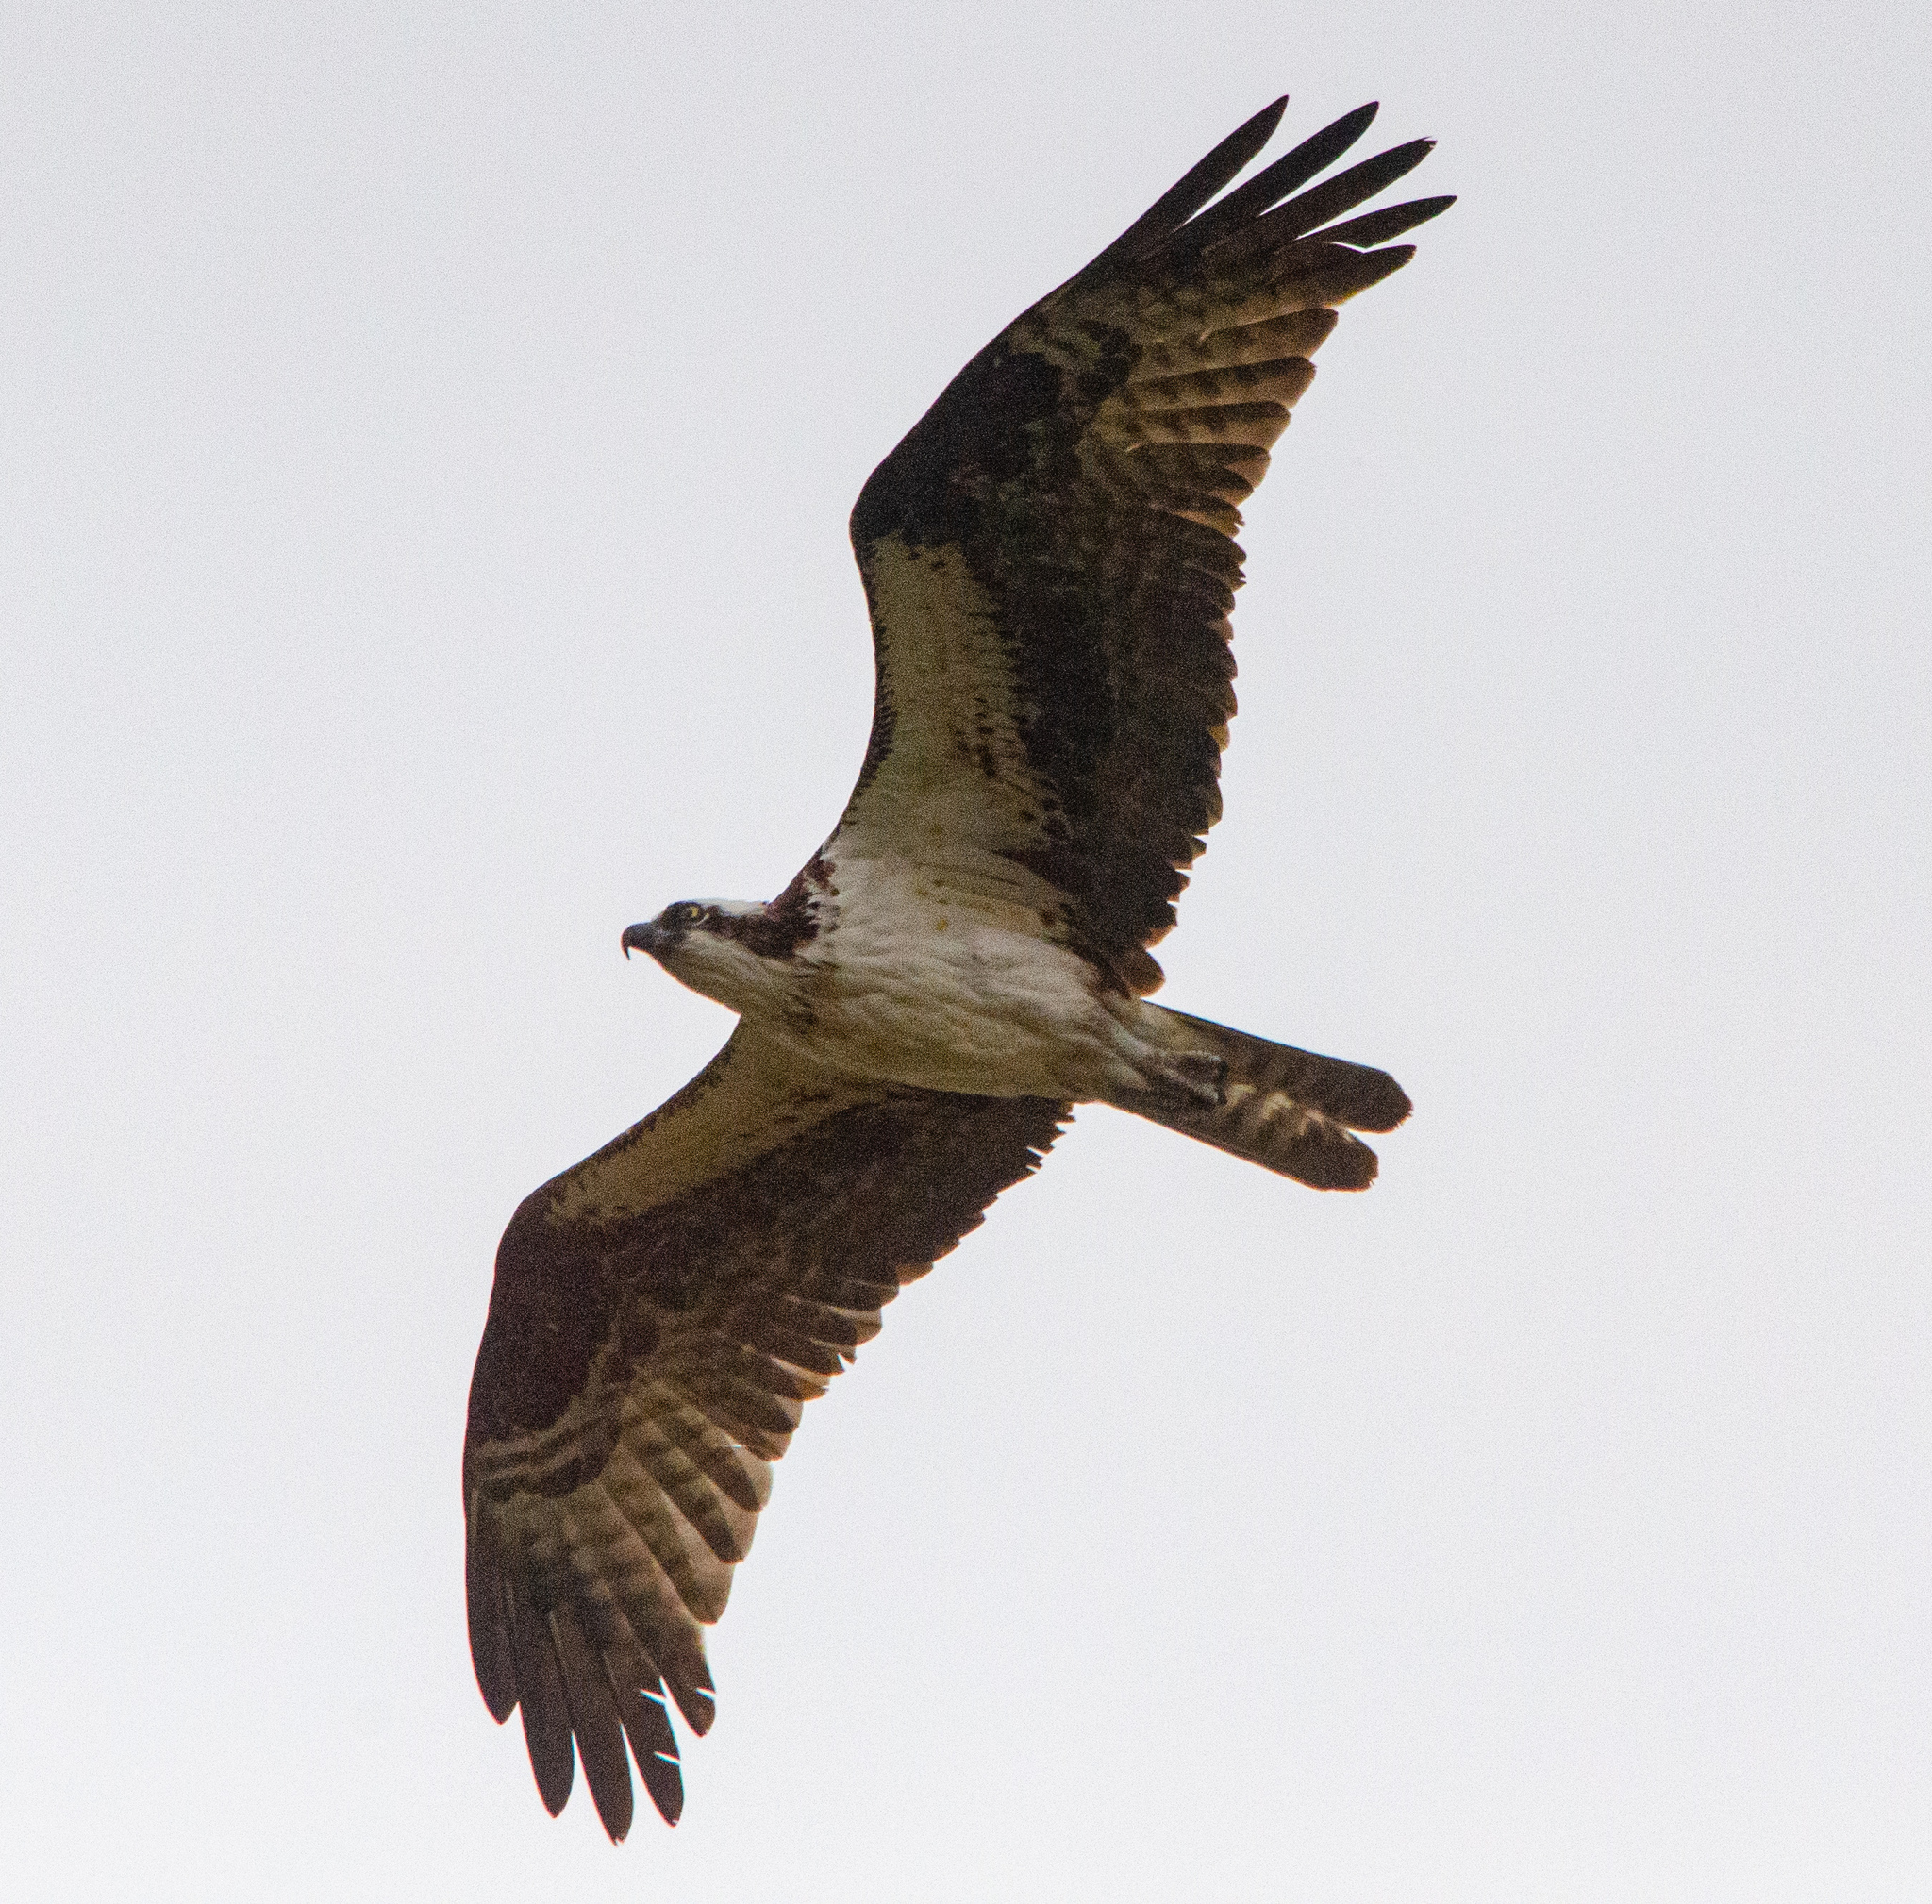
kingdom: Animalia
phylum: Chordata
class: Aves
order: Accipitriformes
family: Pandionidae
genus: Pandion
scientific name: Pandion haliaetus
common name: Osprey
